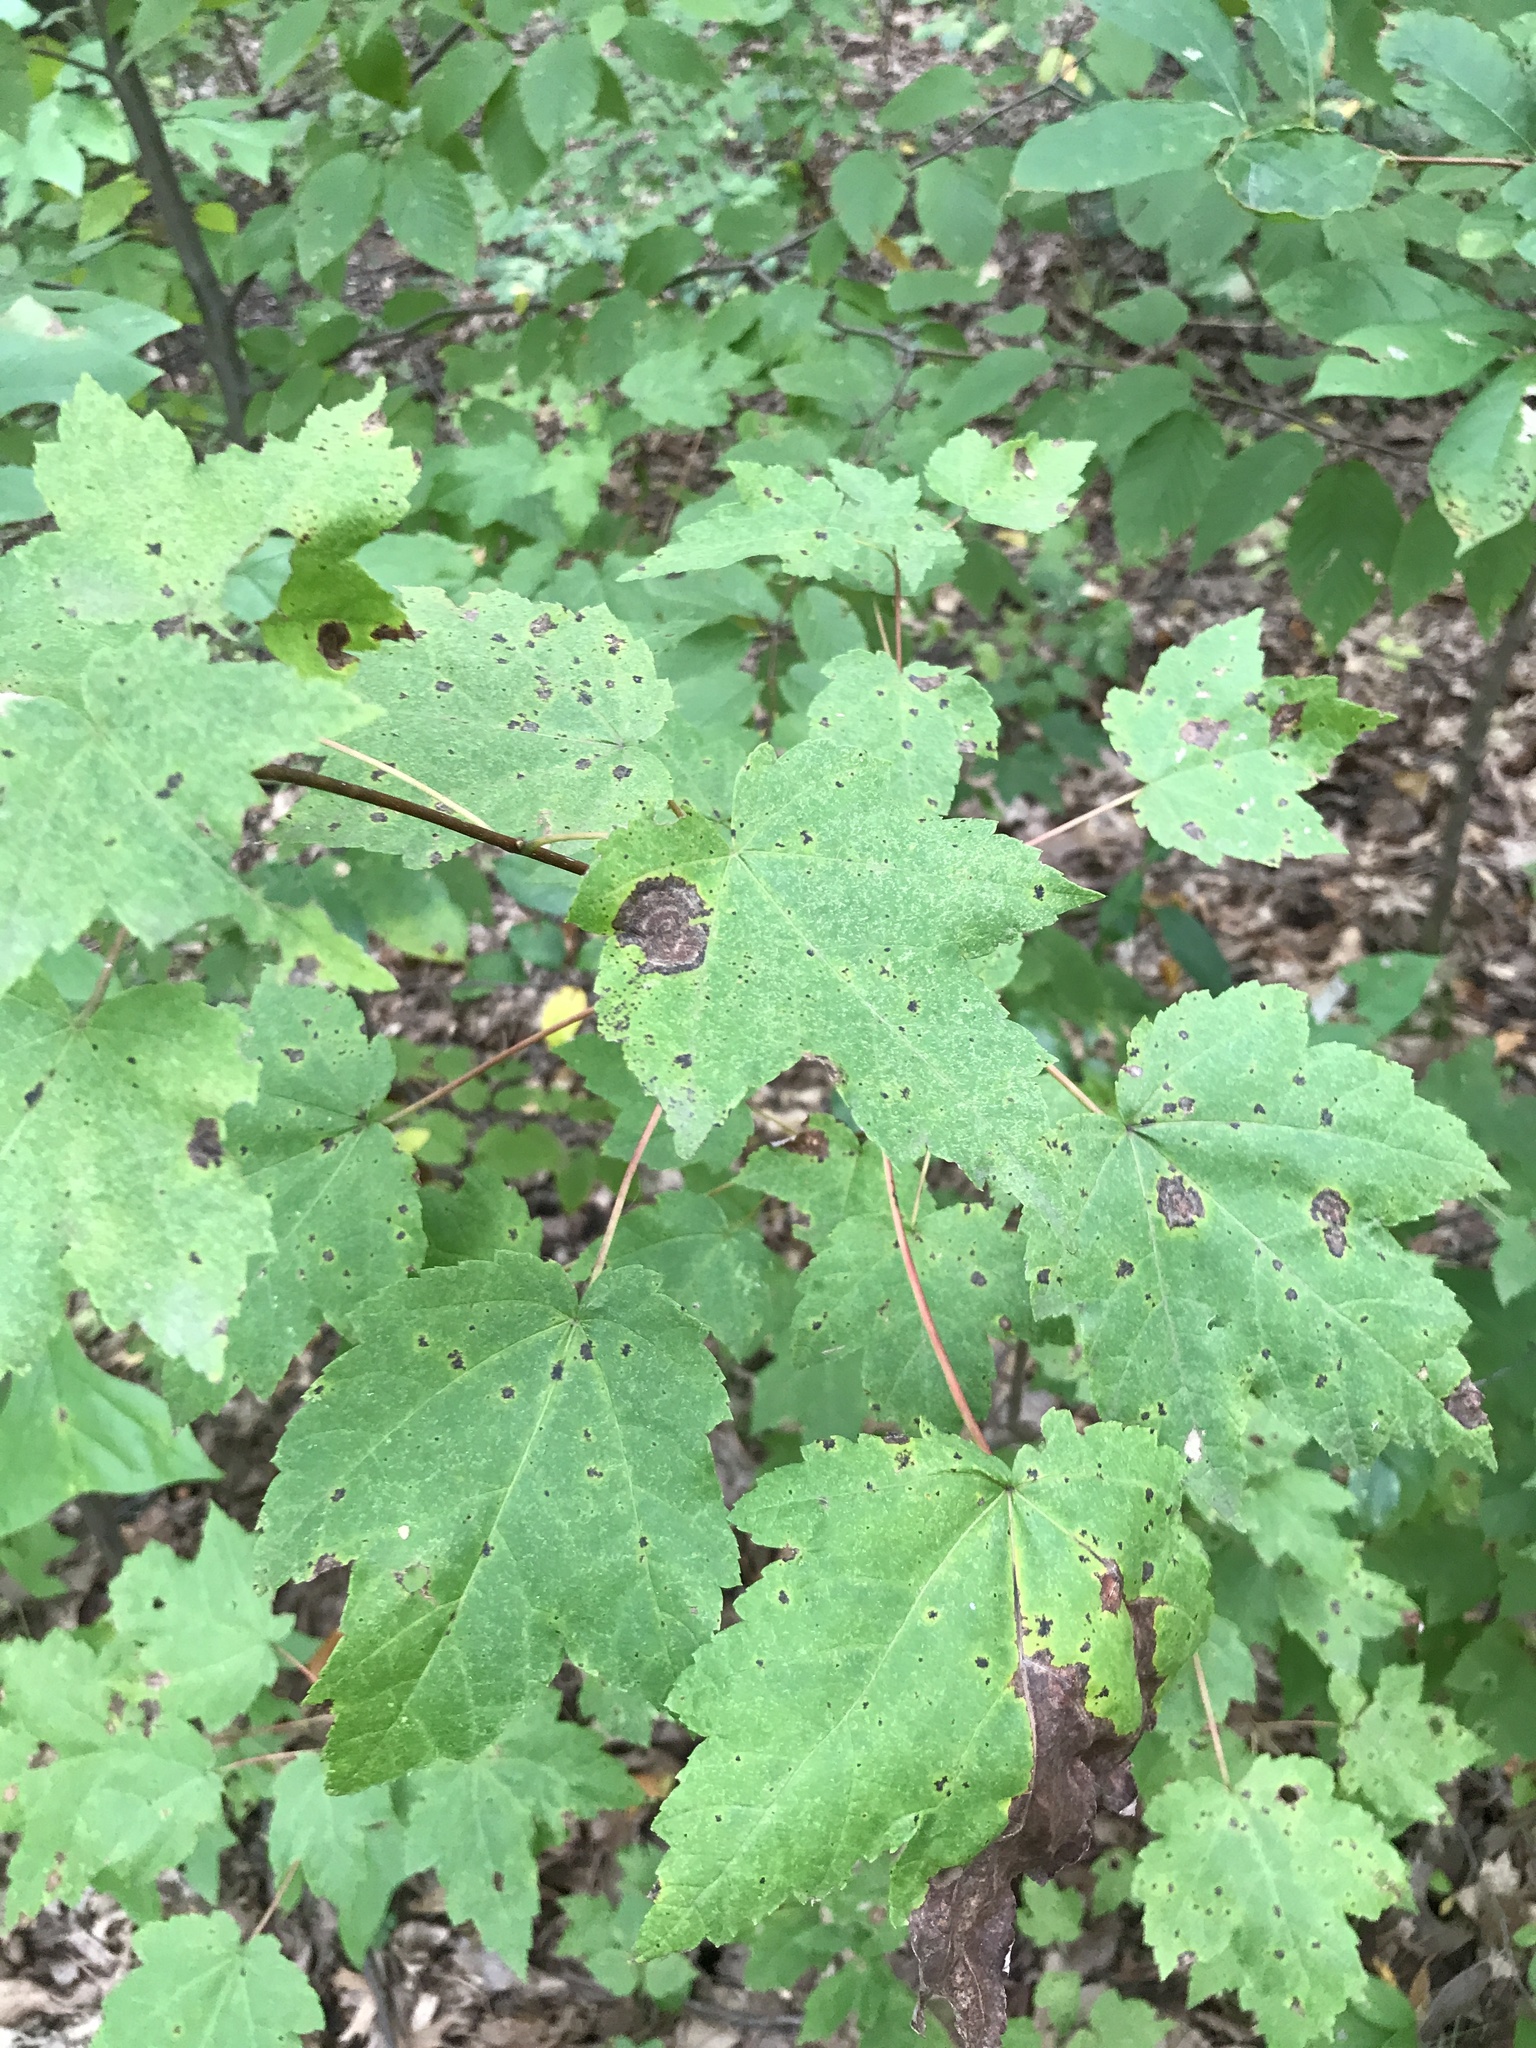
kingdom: Plantae
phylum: Tracheophyta
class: Magnoliopsida
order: Sapindales
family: Sapindaceae
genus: Acer
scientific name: Acer rubrum
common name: Red maple
